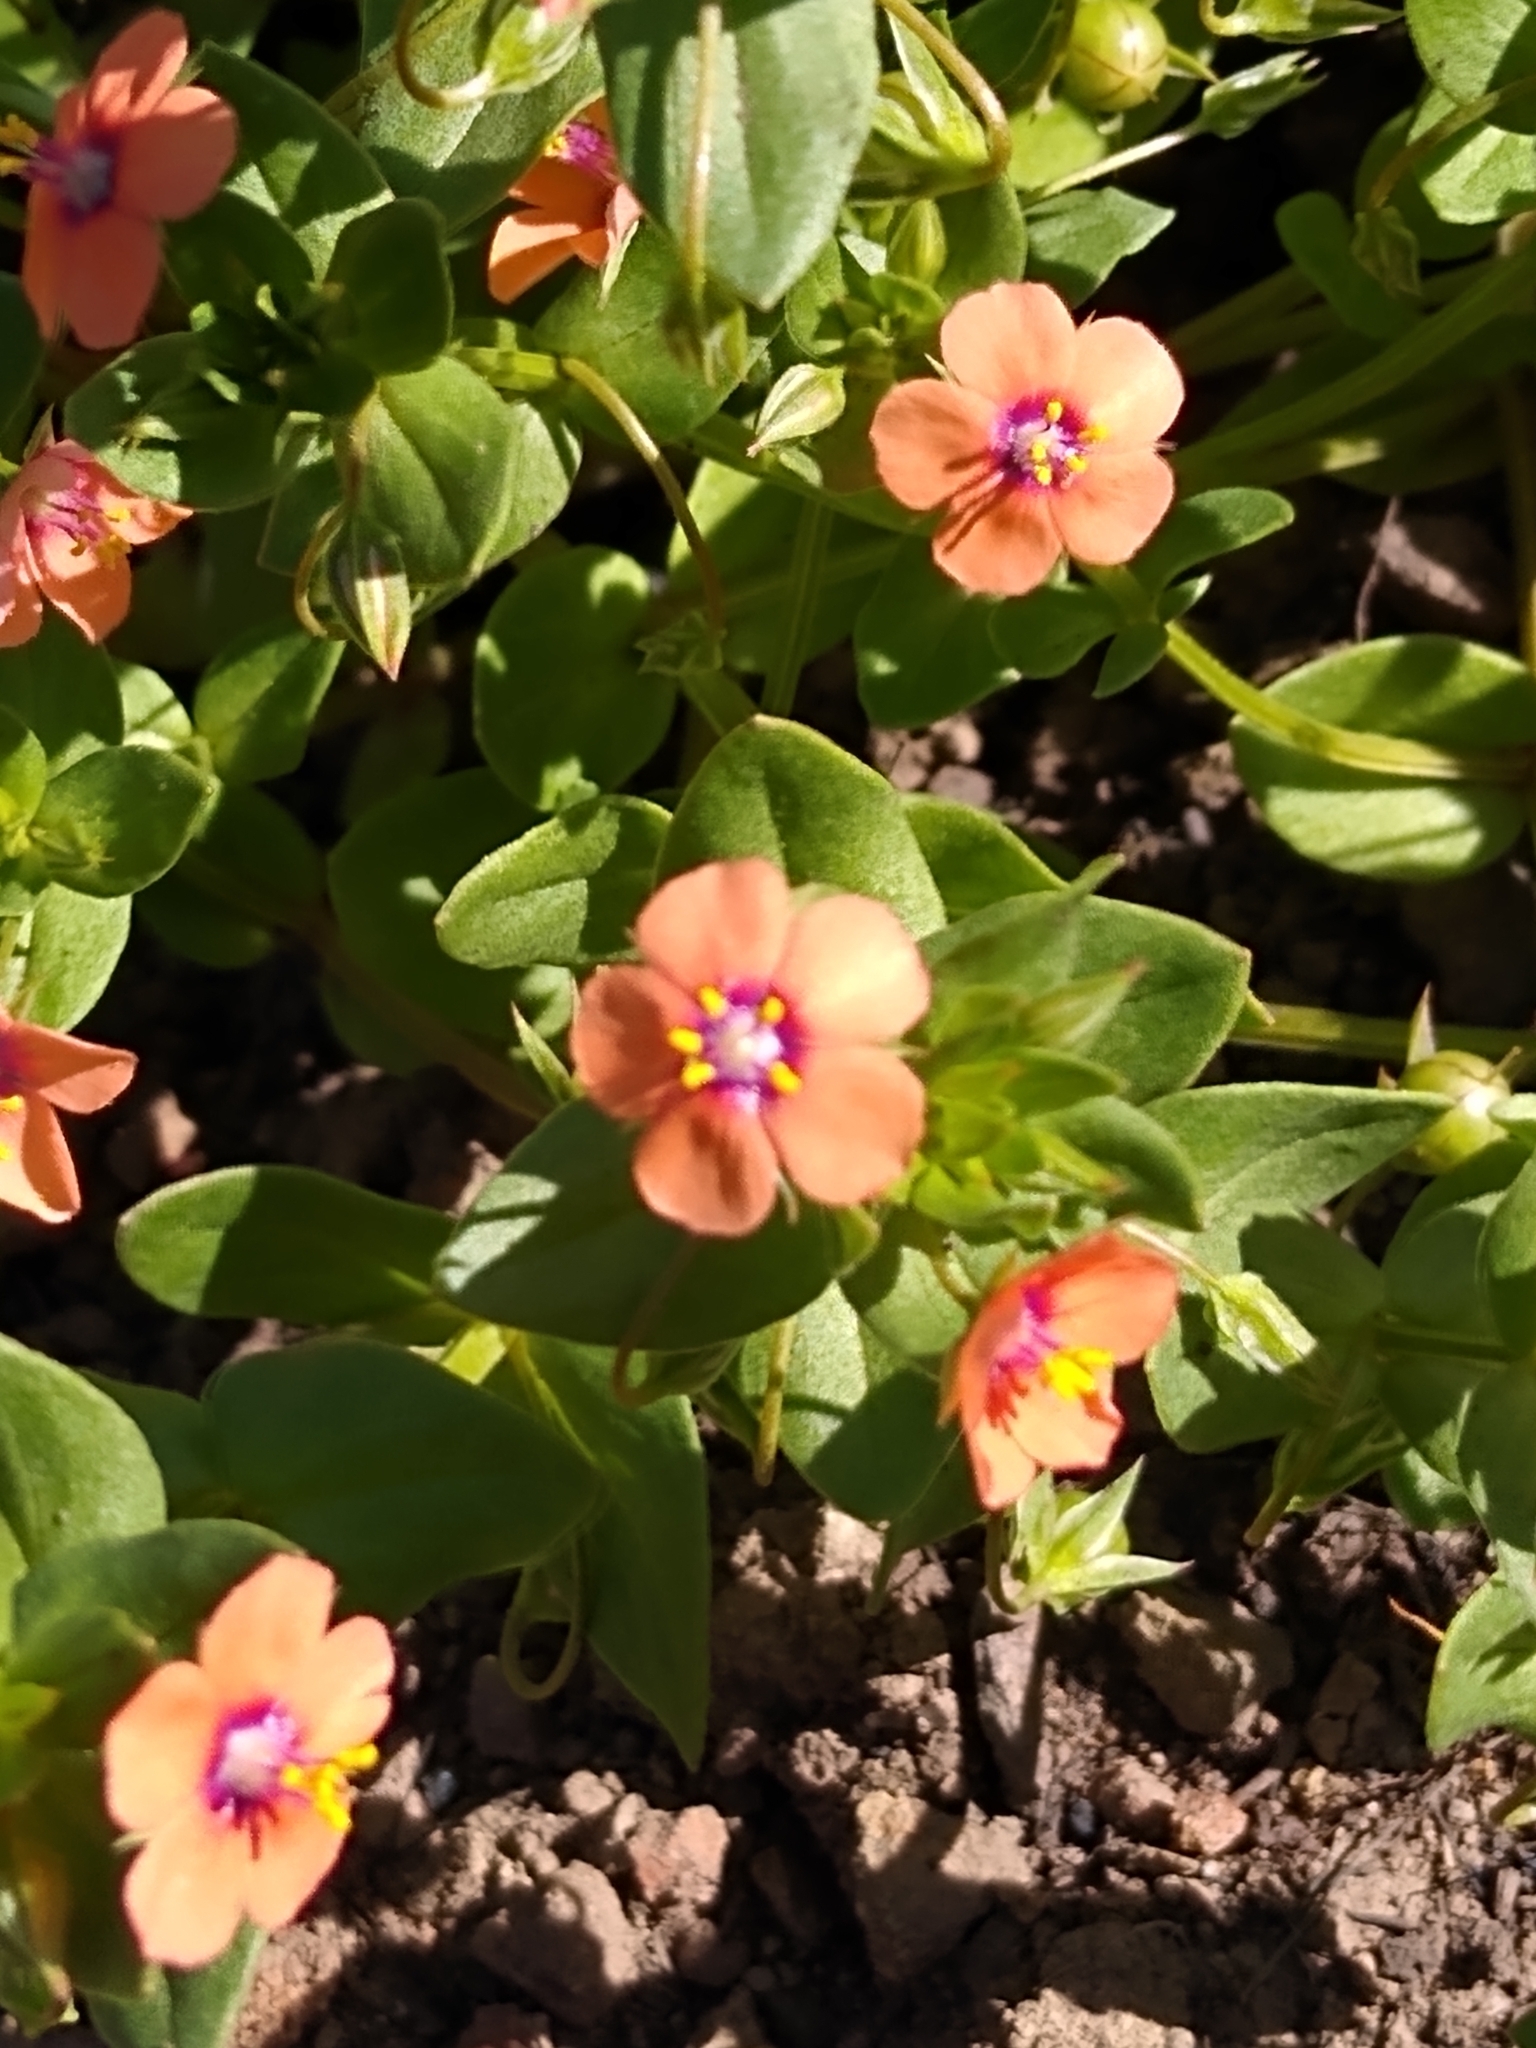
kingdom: Plantae
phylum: Tracheophyta
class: Magnoliopsida
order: Ericales
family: Primulaceae
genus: Lysimachia
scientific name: Lysimachia arvensis
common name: Scarlet pimpernel
